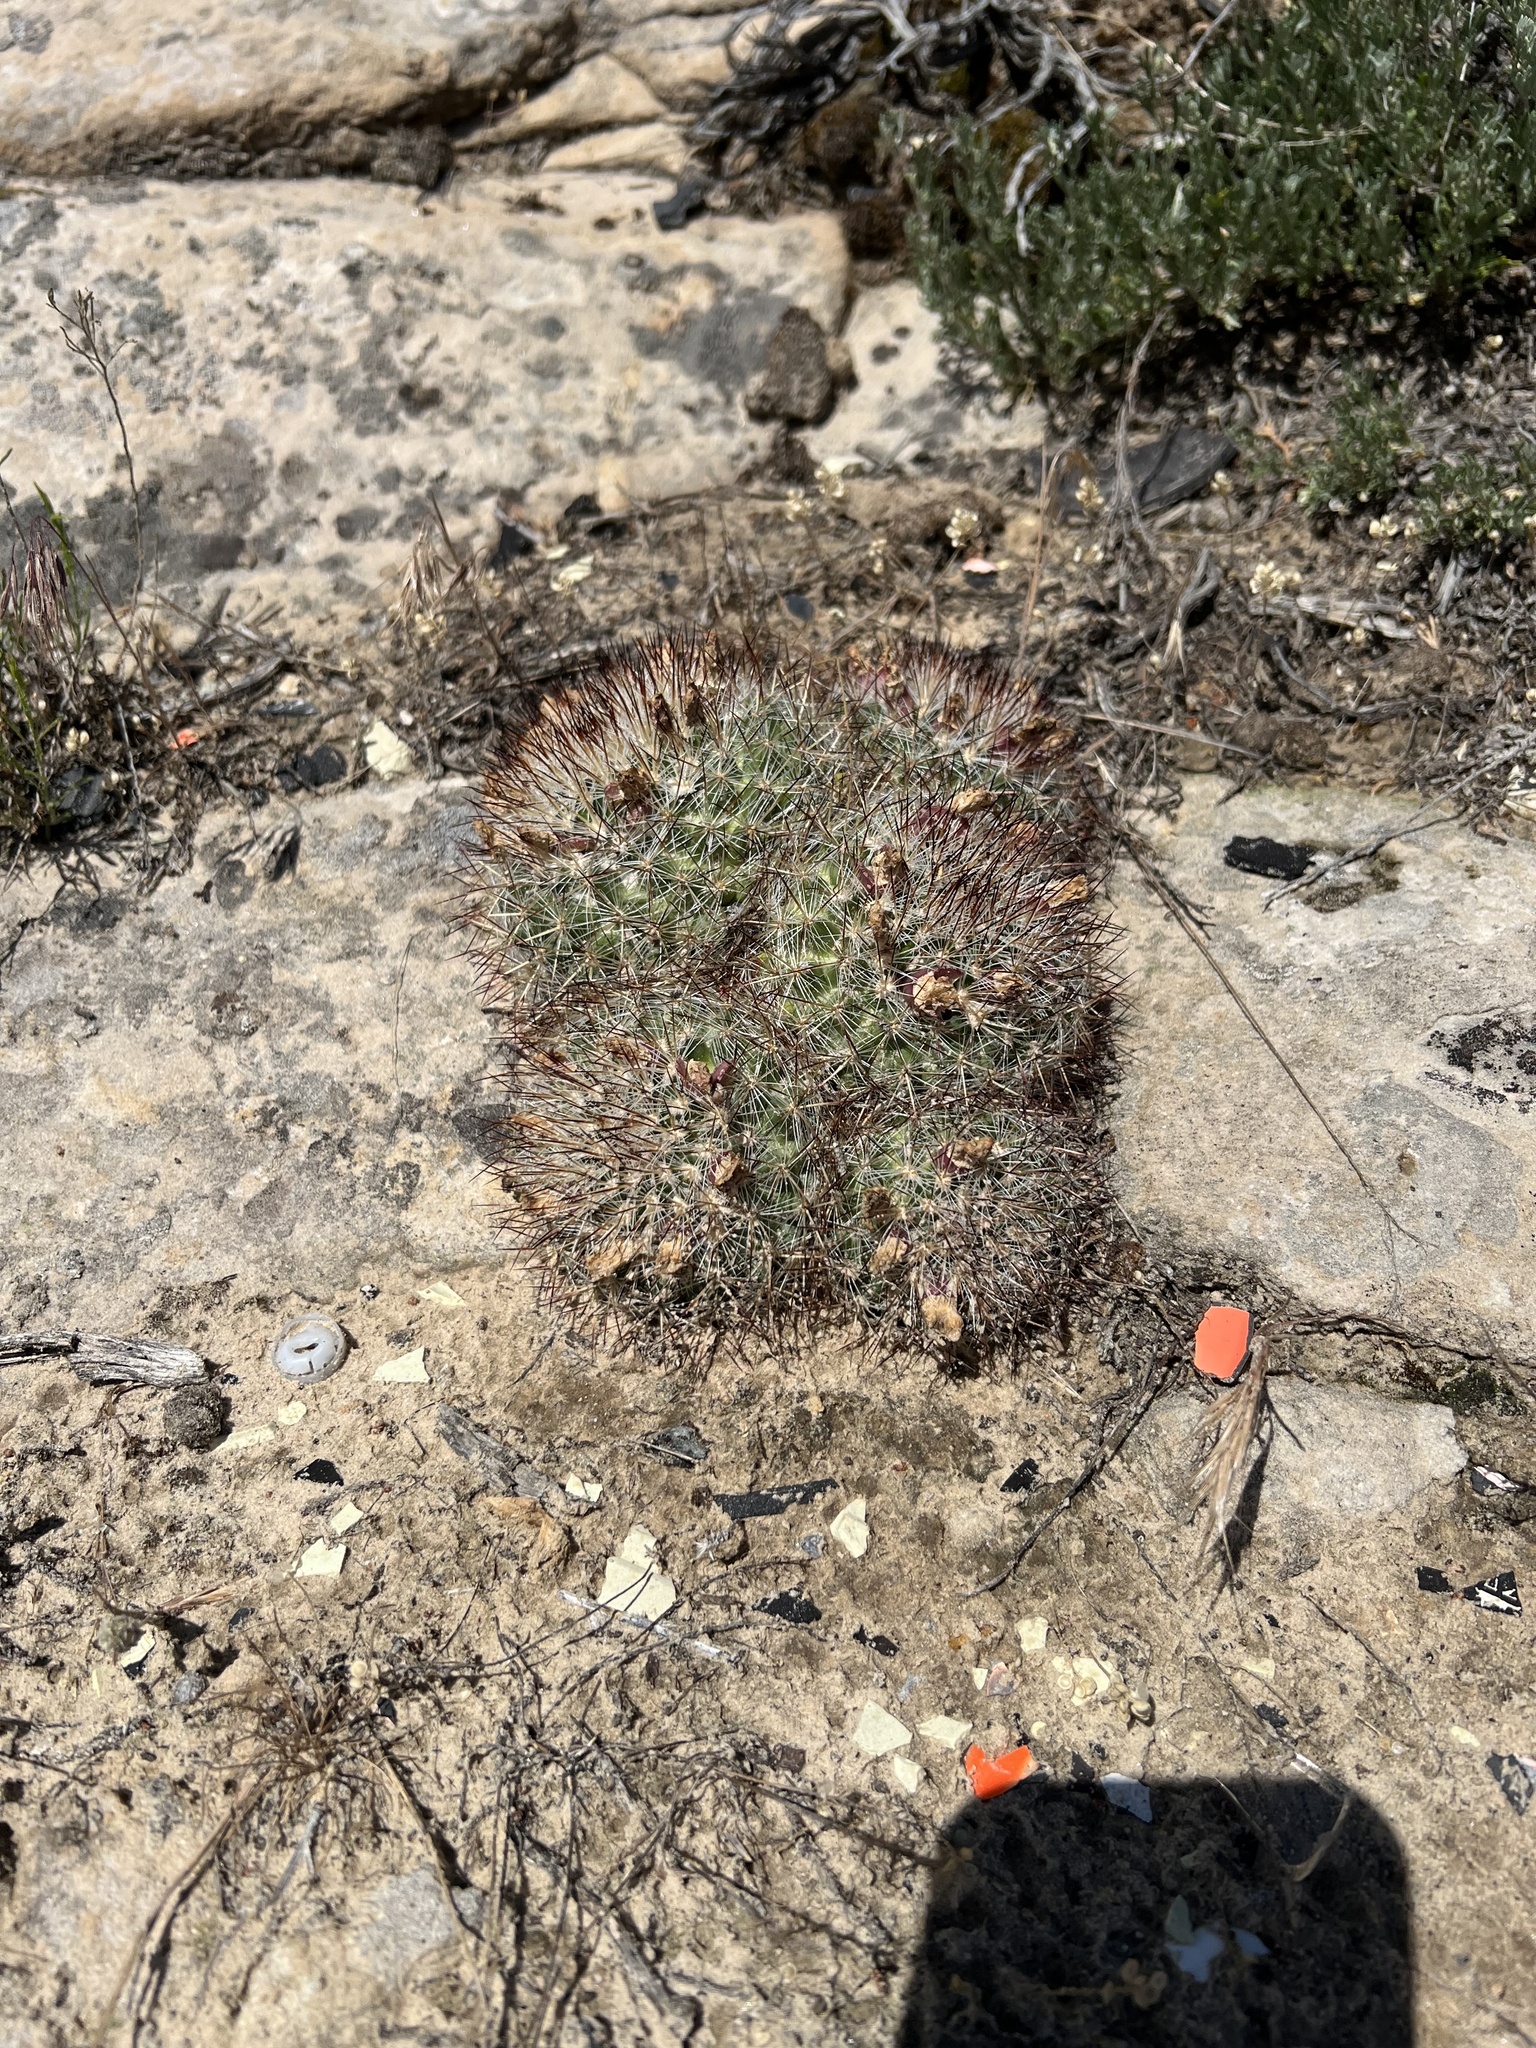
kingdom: Plantae
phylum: Tracheophyta
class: Magnoliopsida
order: Caryophyllales
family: Cactaceae
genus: Pediocactus
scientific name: Pediocactus simpsonii
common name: Simpson's hedgehog cactus
